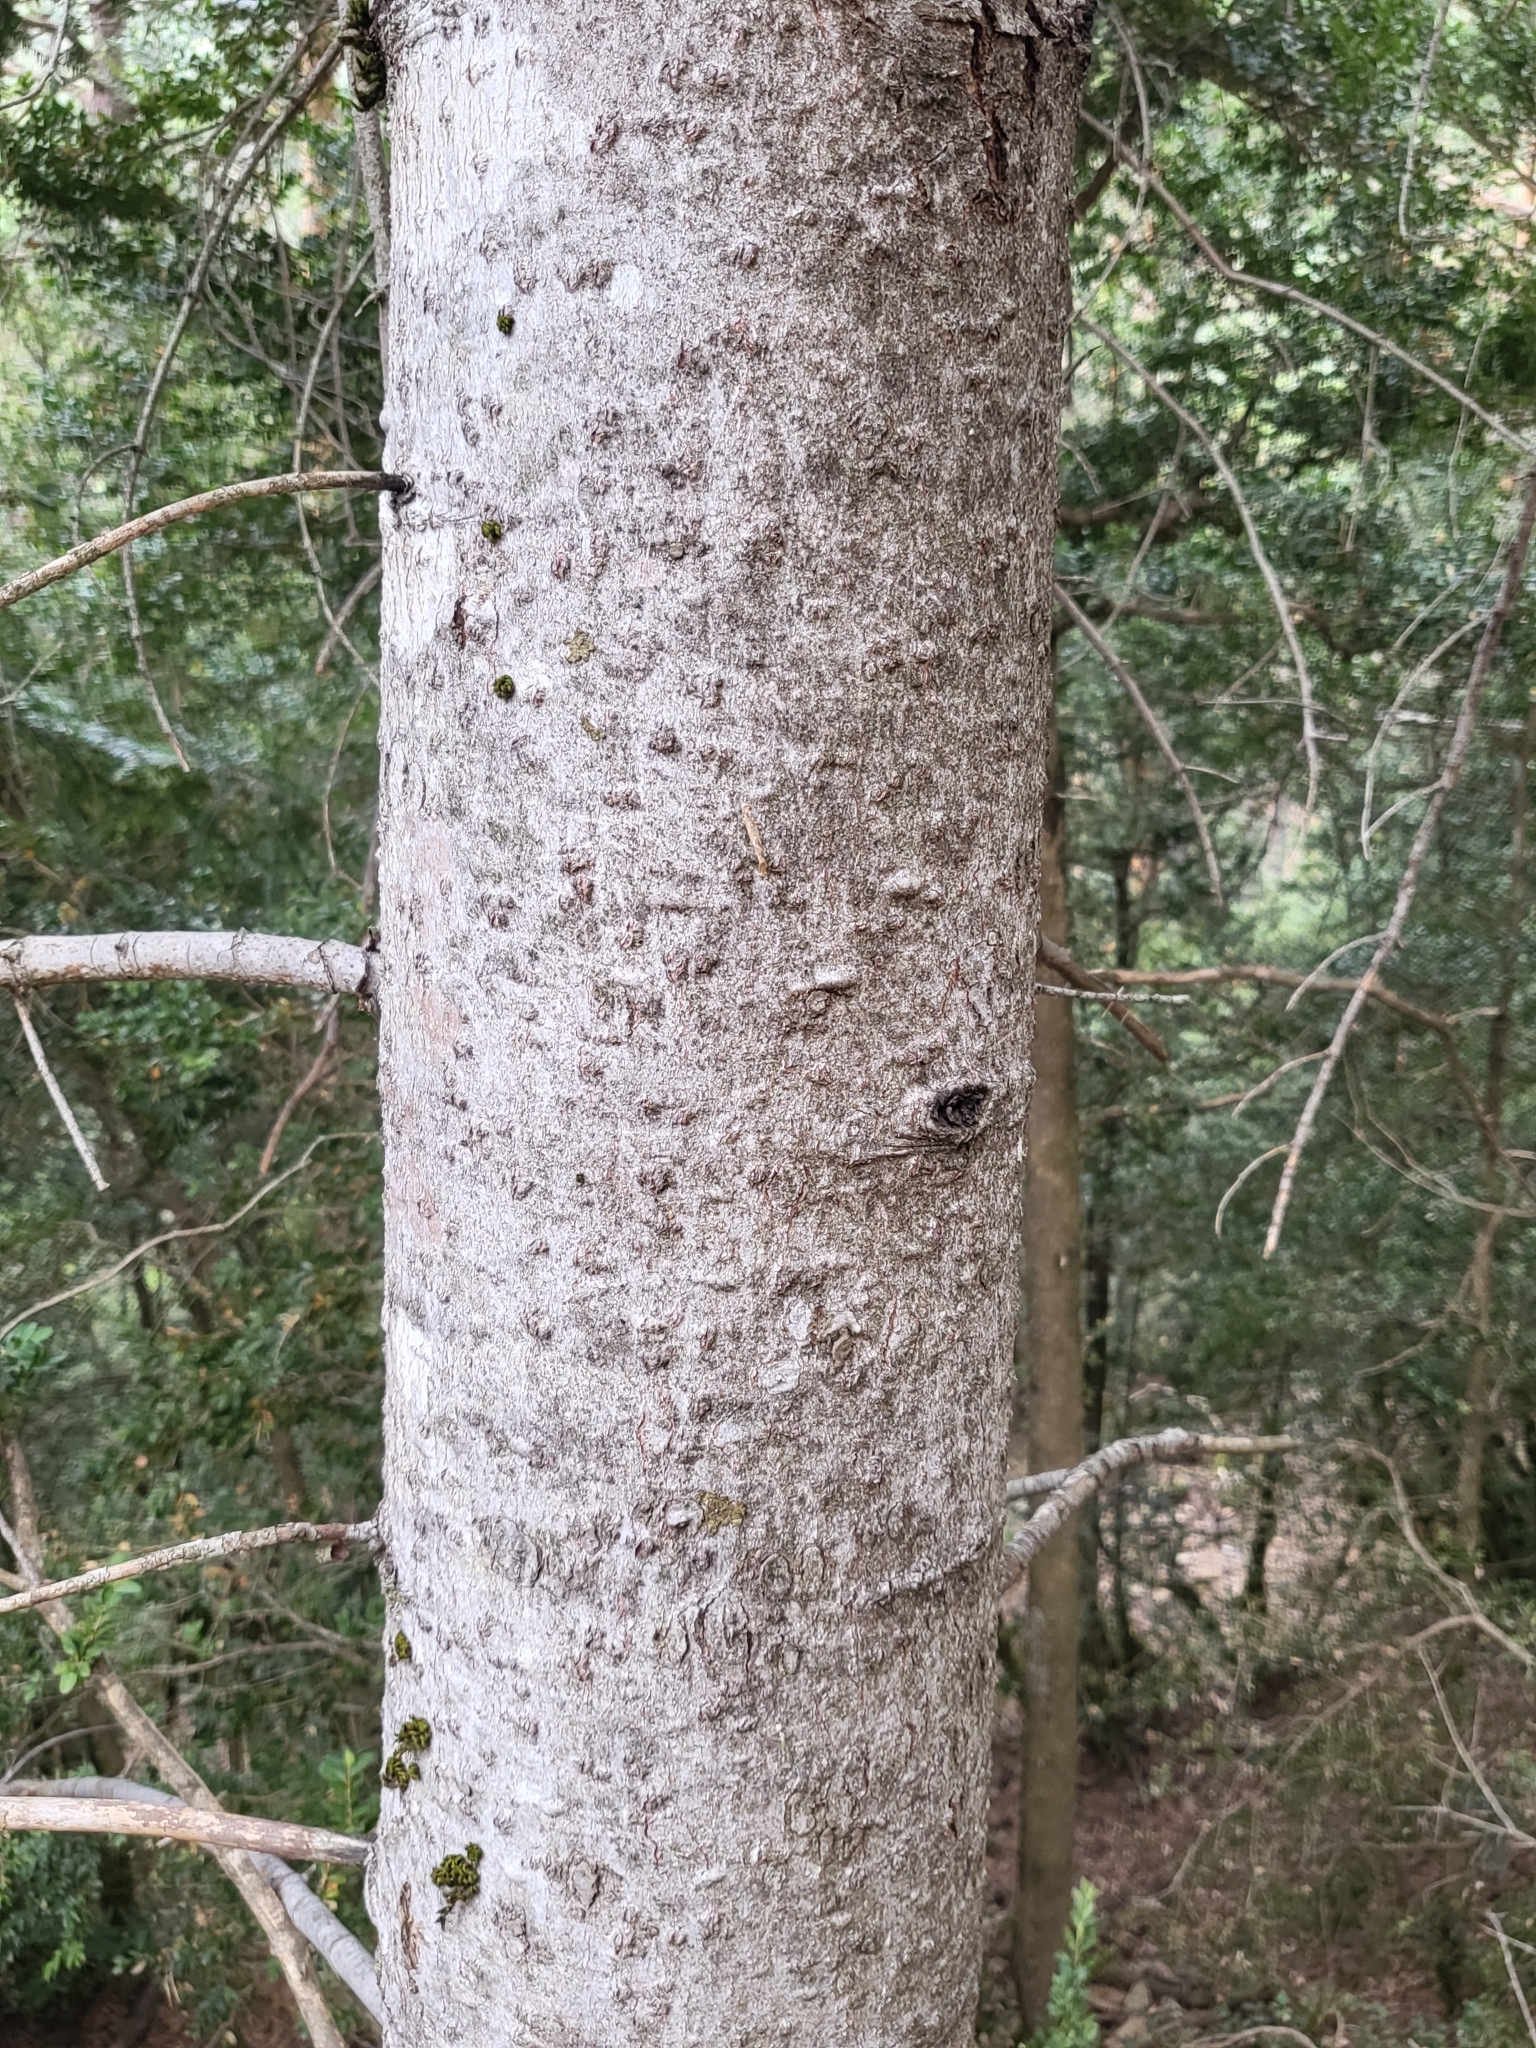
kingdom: Plantae
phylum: Tracheophyta
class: Pinopsida
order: Pinales
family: Pinaceae
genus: Abies
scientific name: Abies alba
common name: Silver fir
